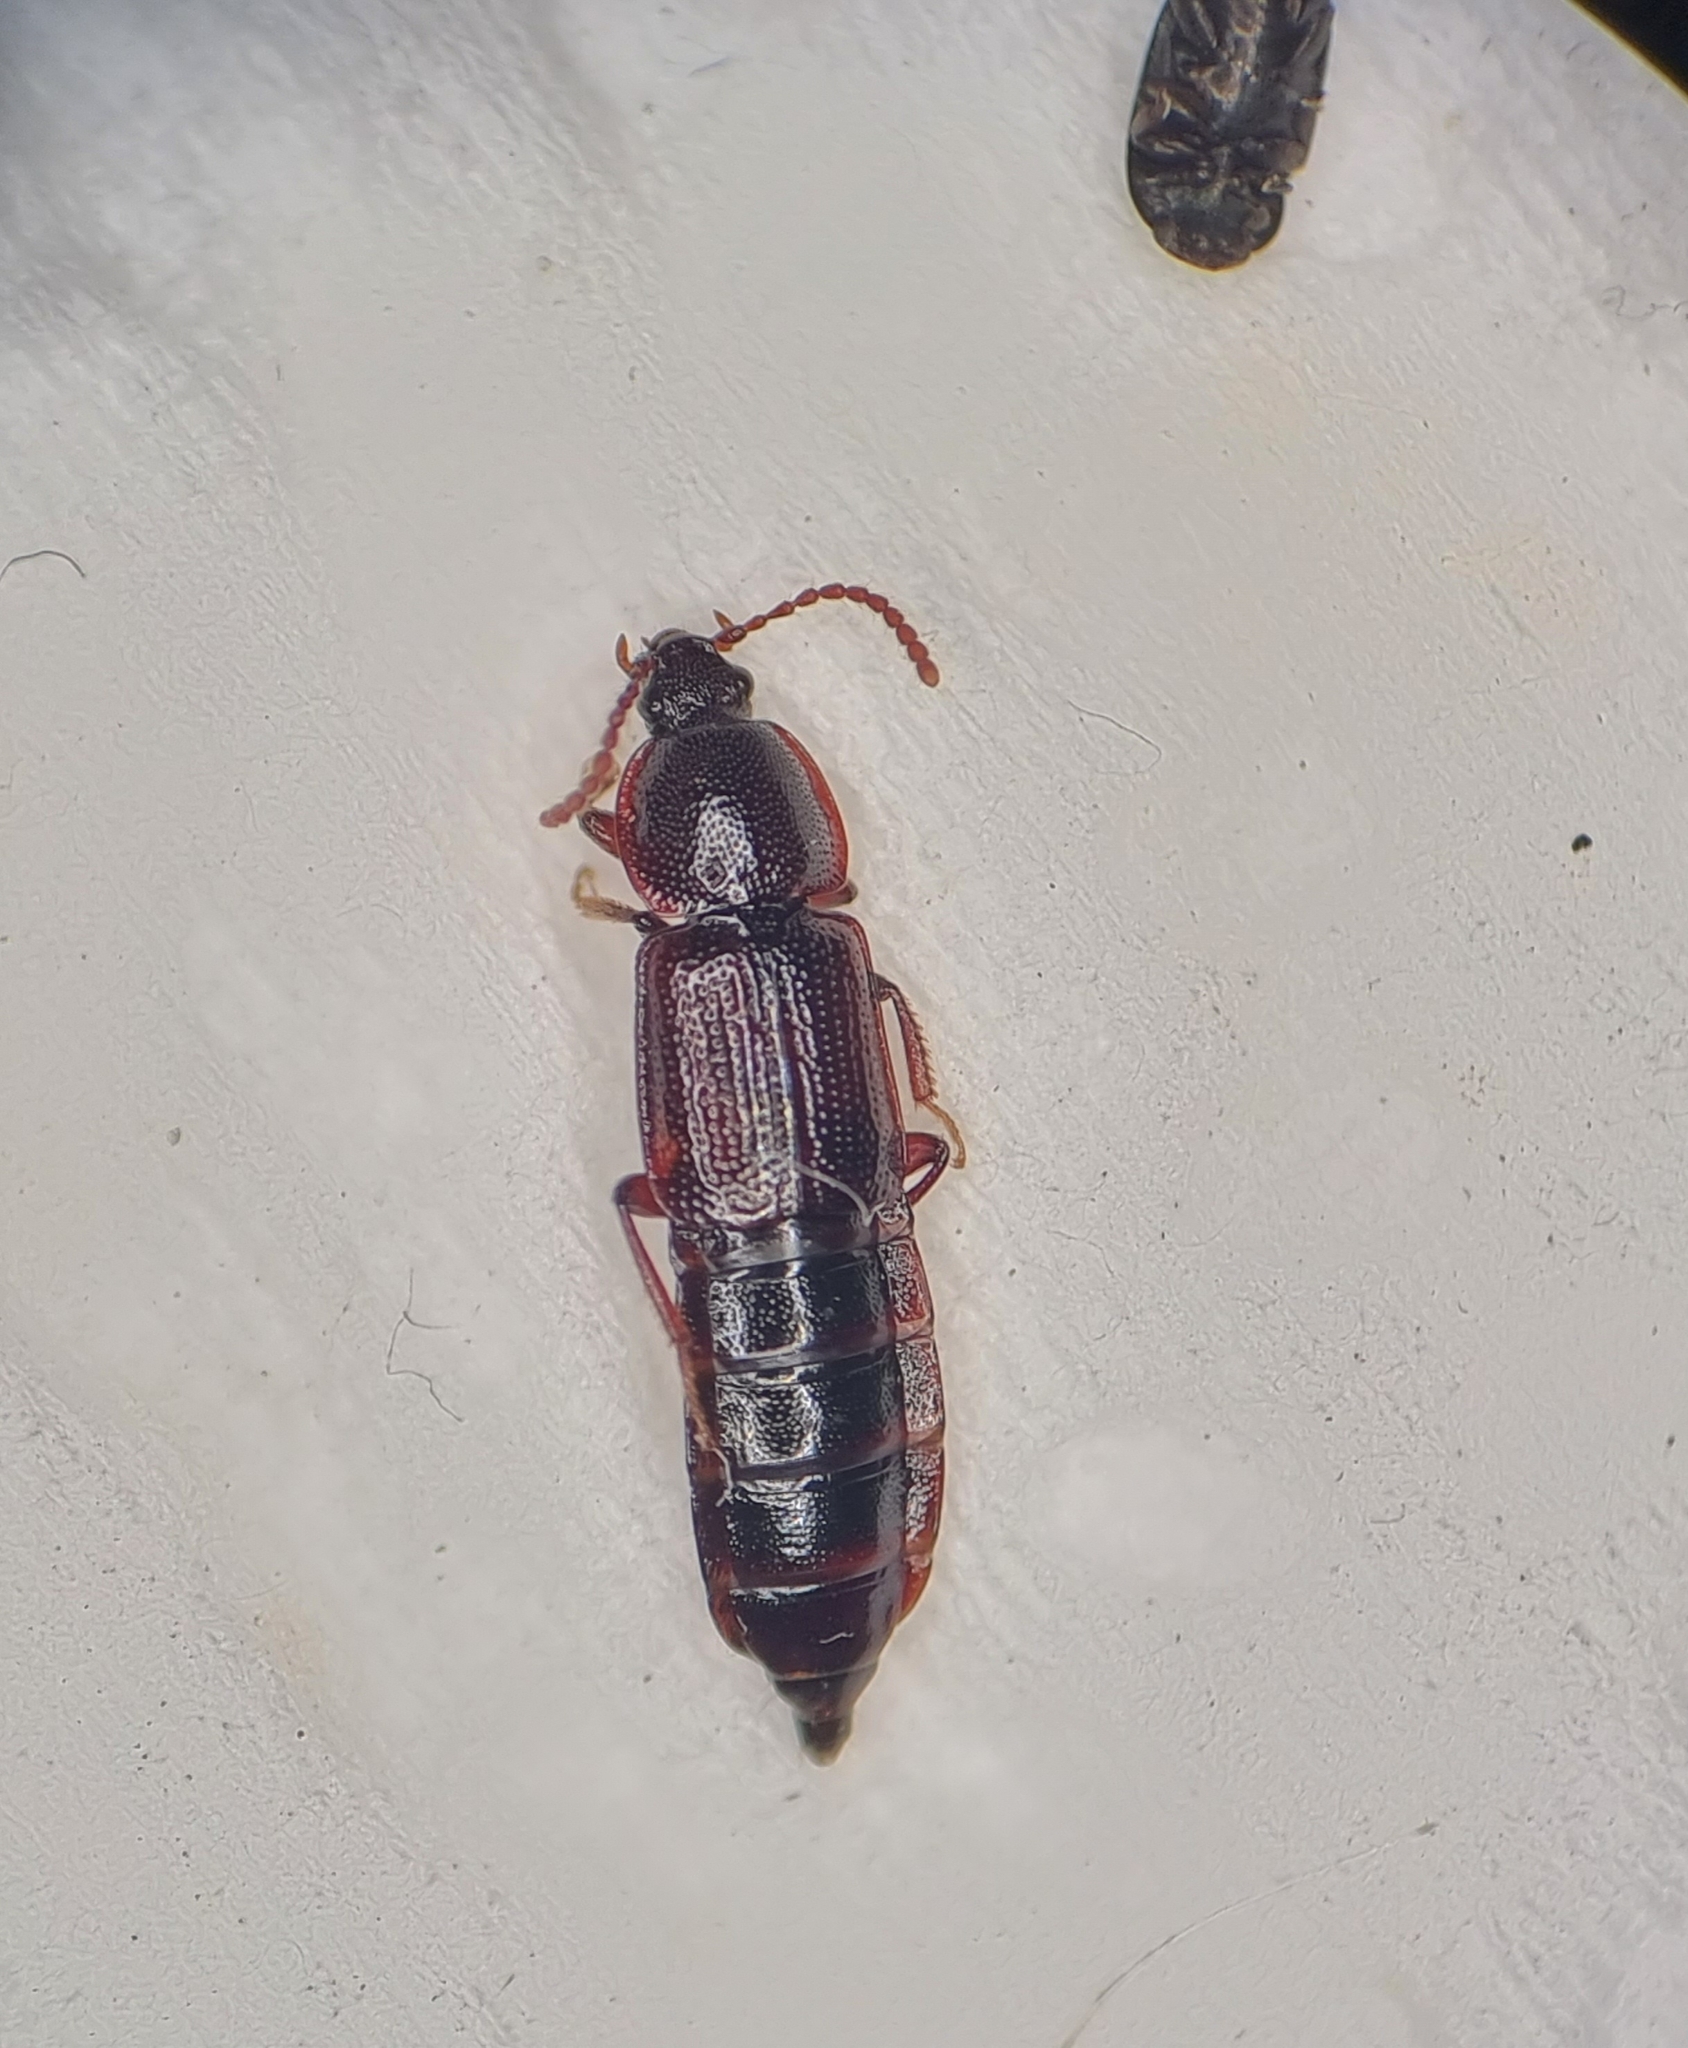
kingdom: Animalia
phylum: Arthropoda
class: Insecta
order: Coleoptera
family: Staphylinidae
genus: Acidota
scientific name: Acidota crenata
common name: Staph beetle
